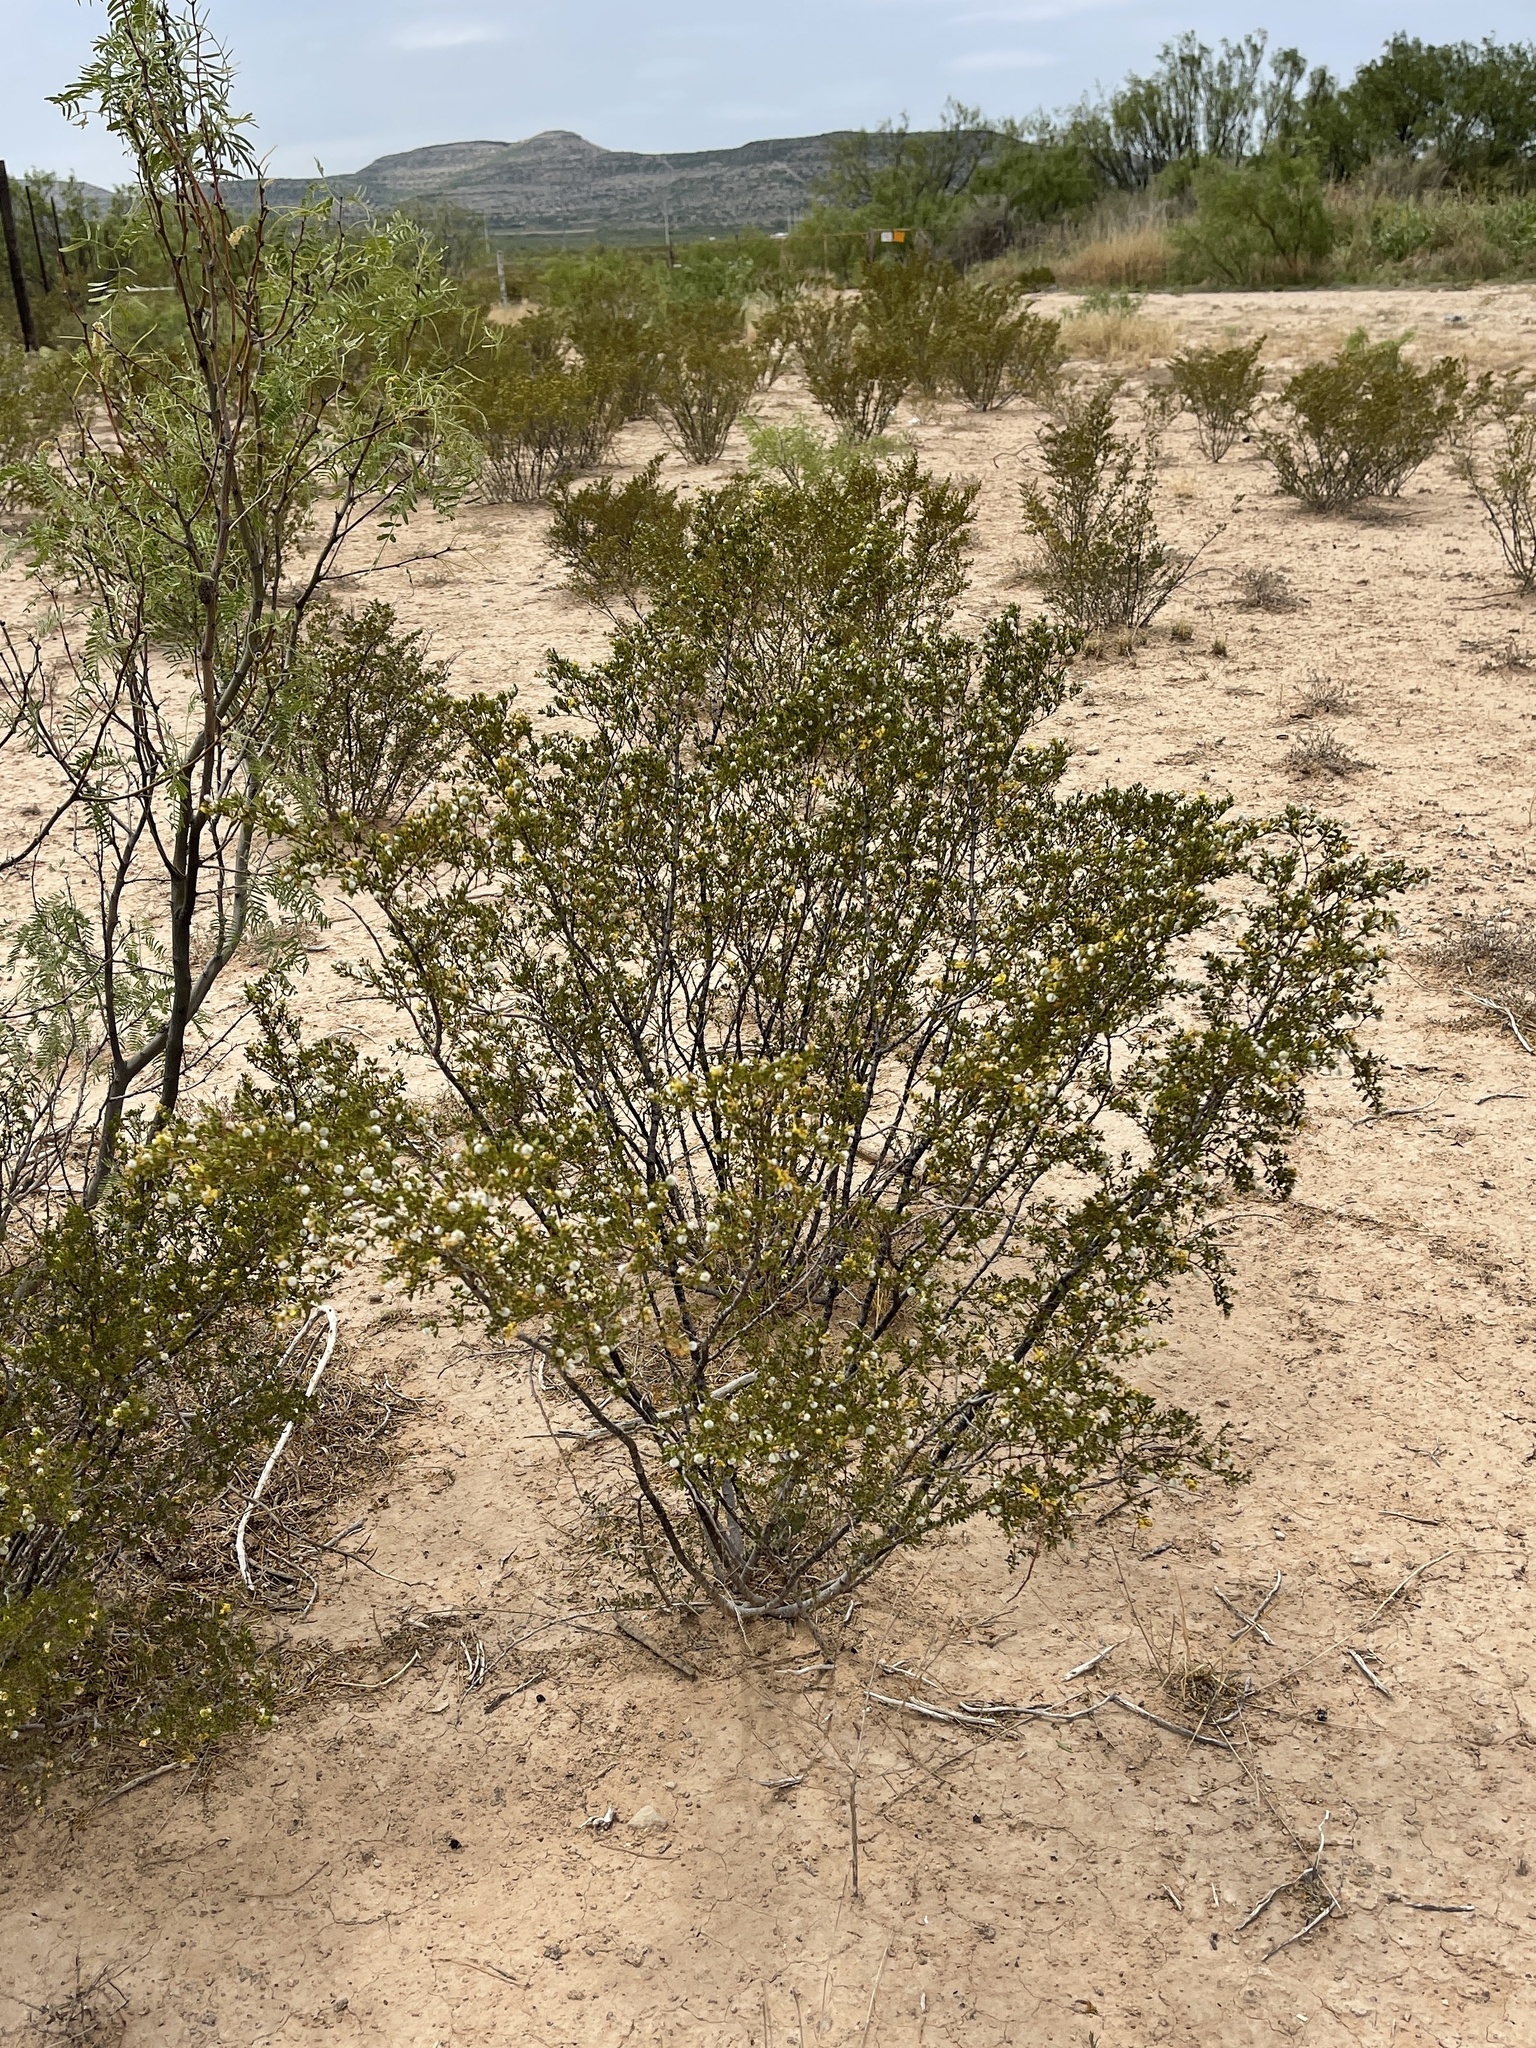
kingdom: Plantae
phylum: Tracheophyta
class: Magnoliopsida
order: Zygophyllales
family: Zygophyllaceae
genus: Larrea
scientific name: Larrea tridentata
